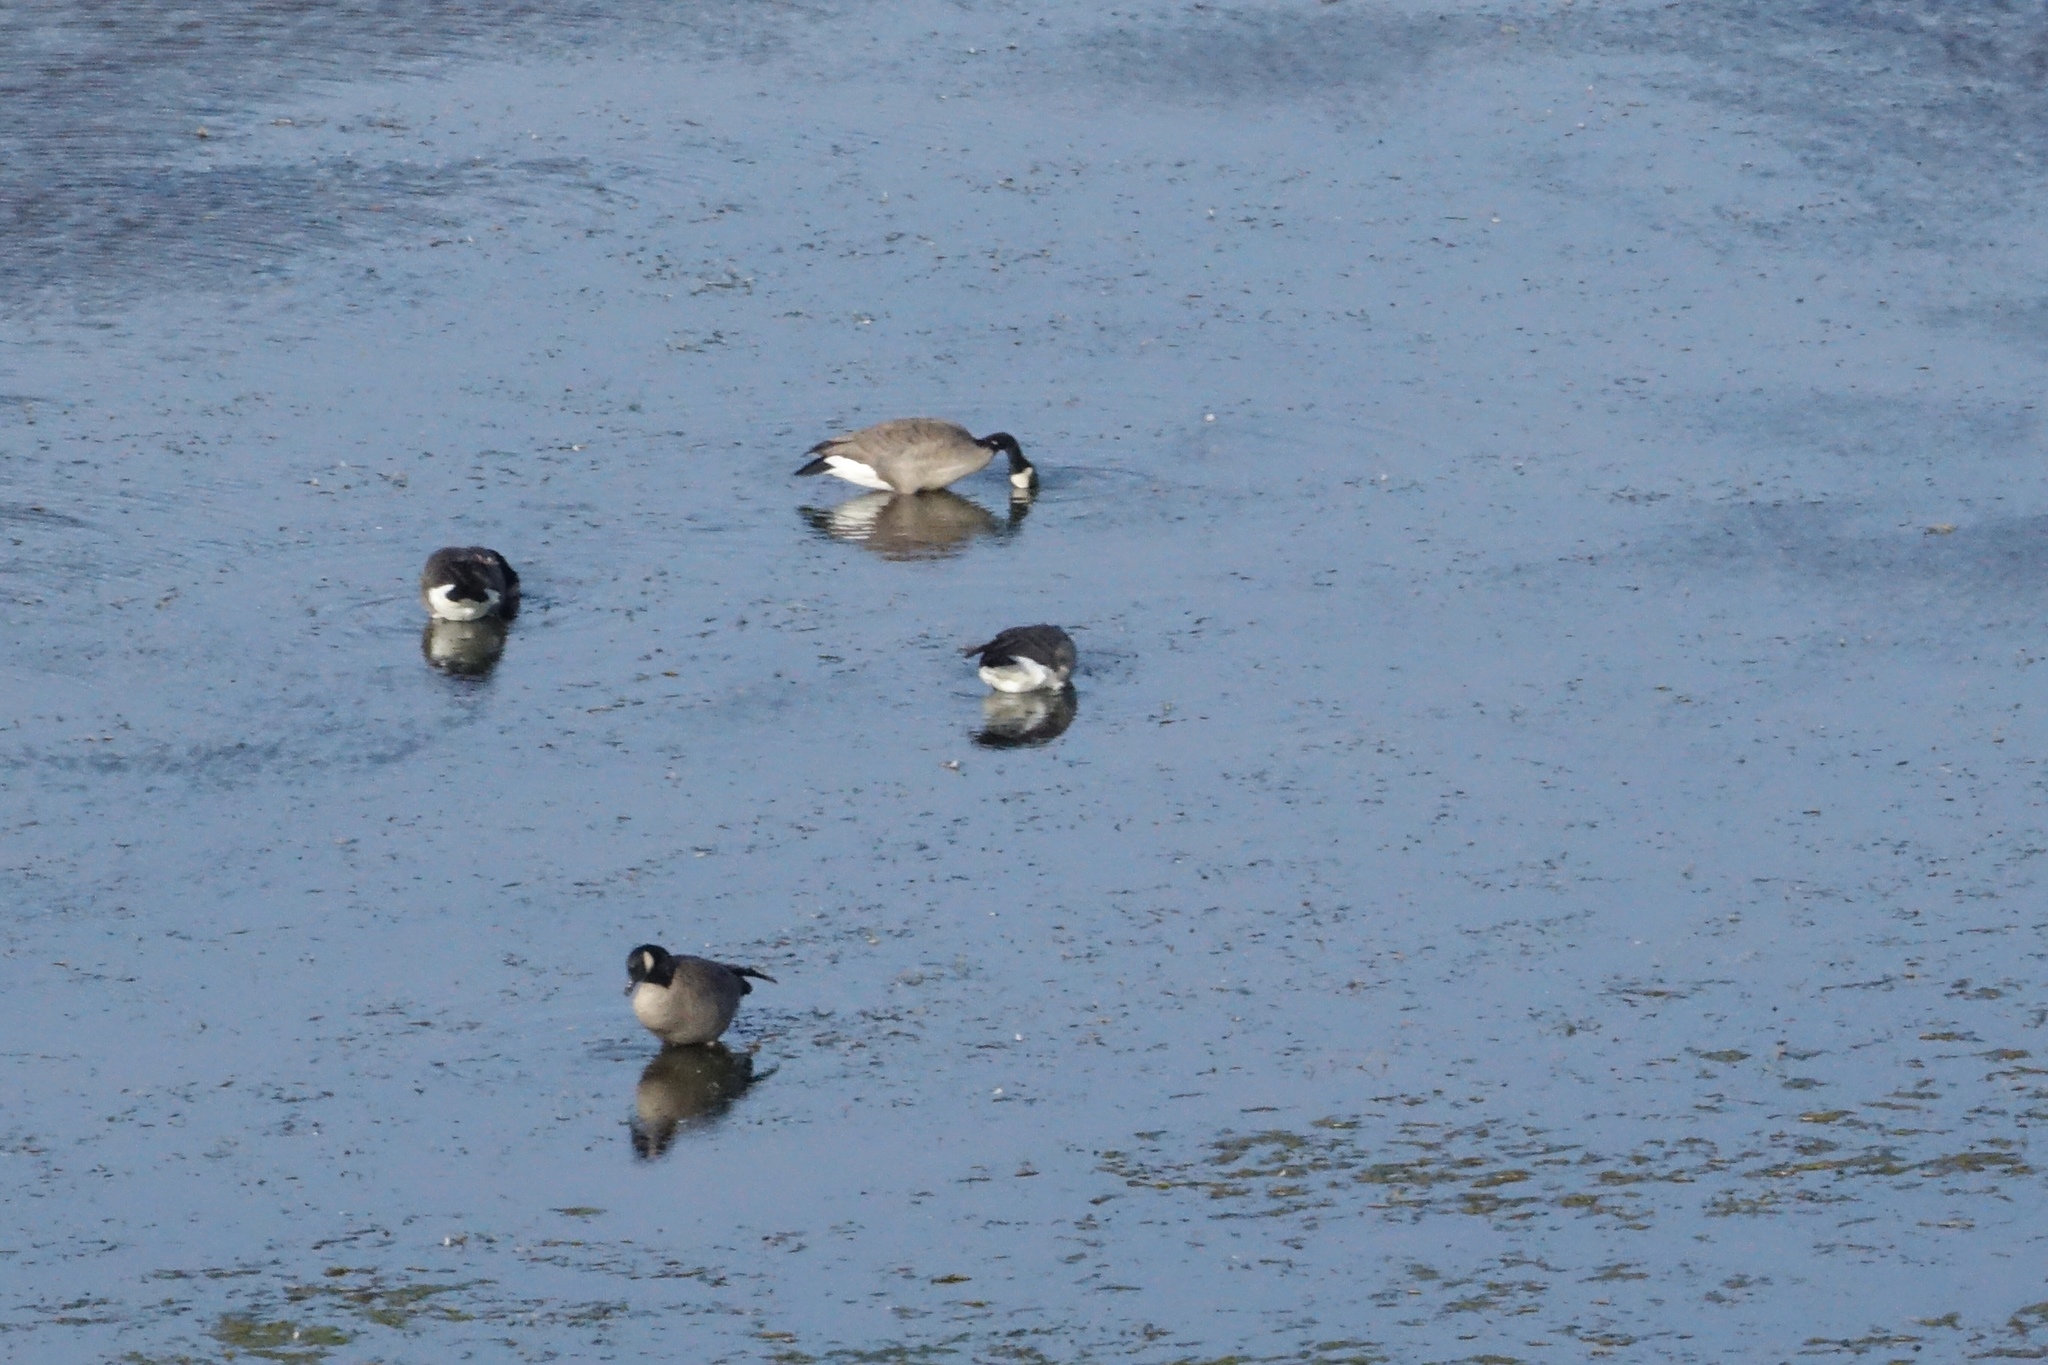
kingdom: Animalia
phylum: Chordata
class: Aves
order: Anseriformes
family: Anatidae
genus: Branta
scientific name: Branta hutchinsii
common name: Cackling goose
